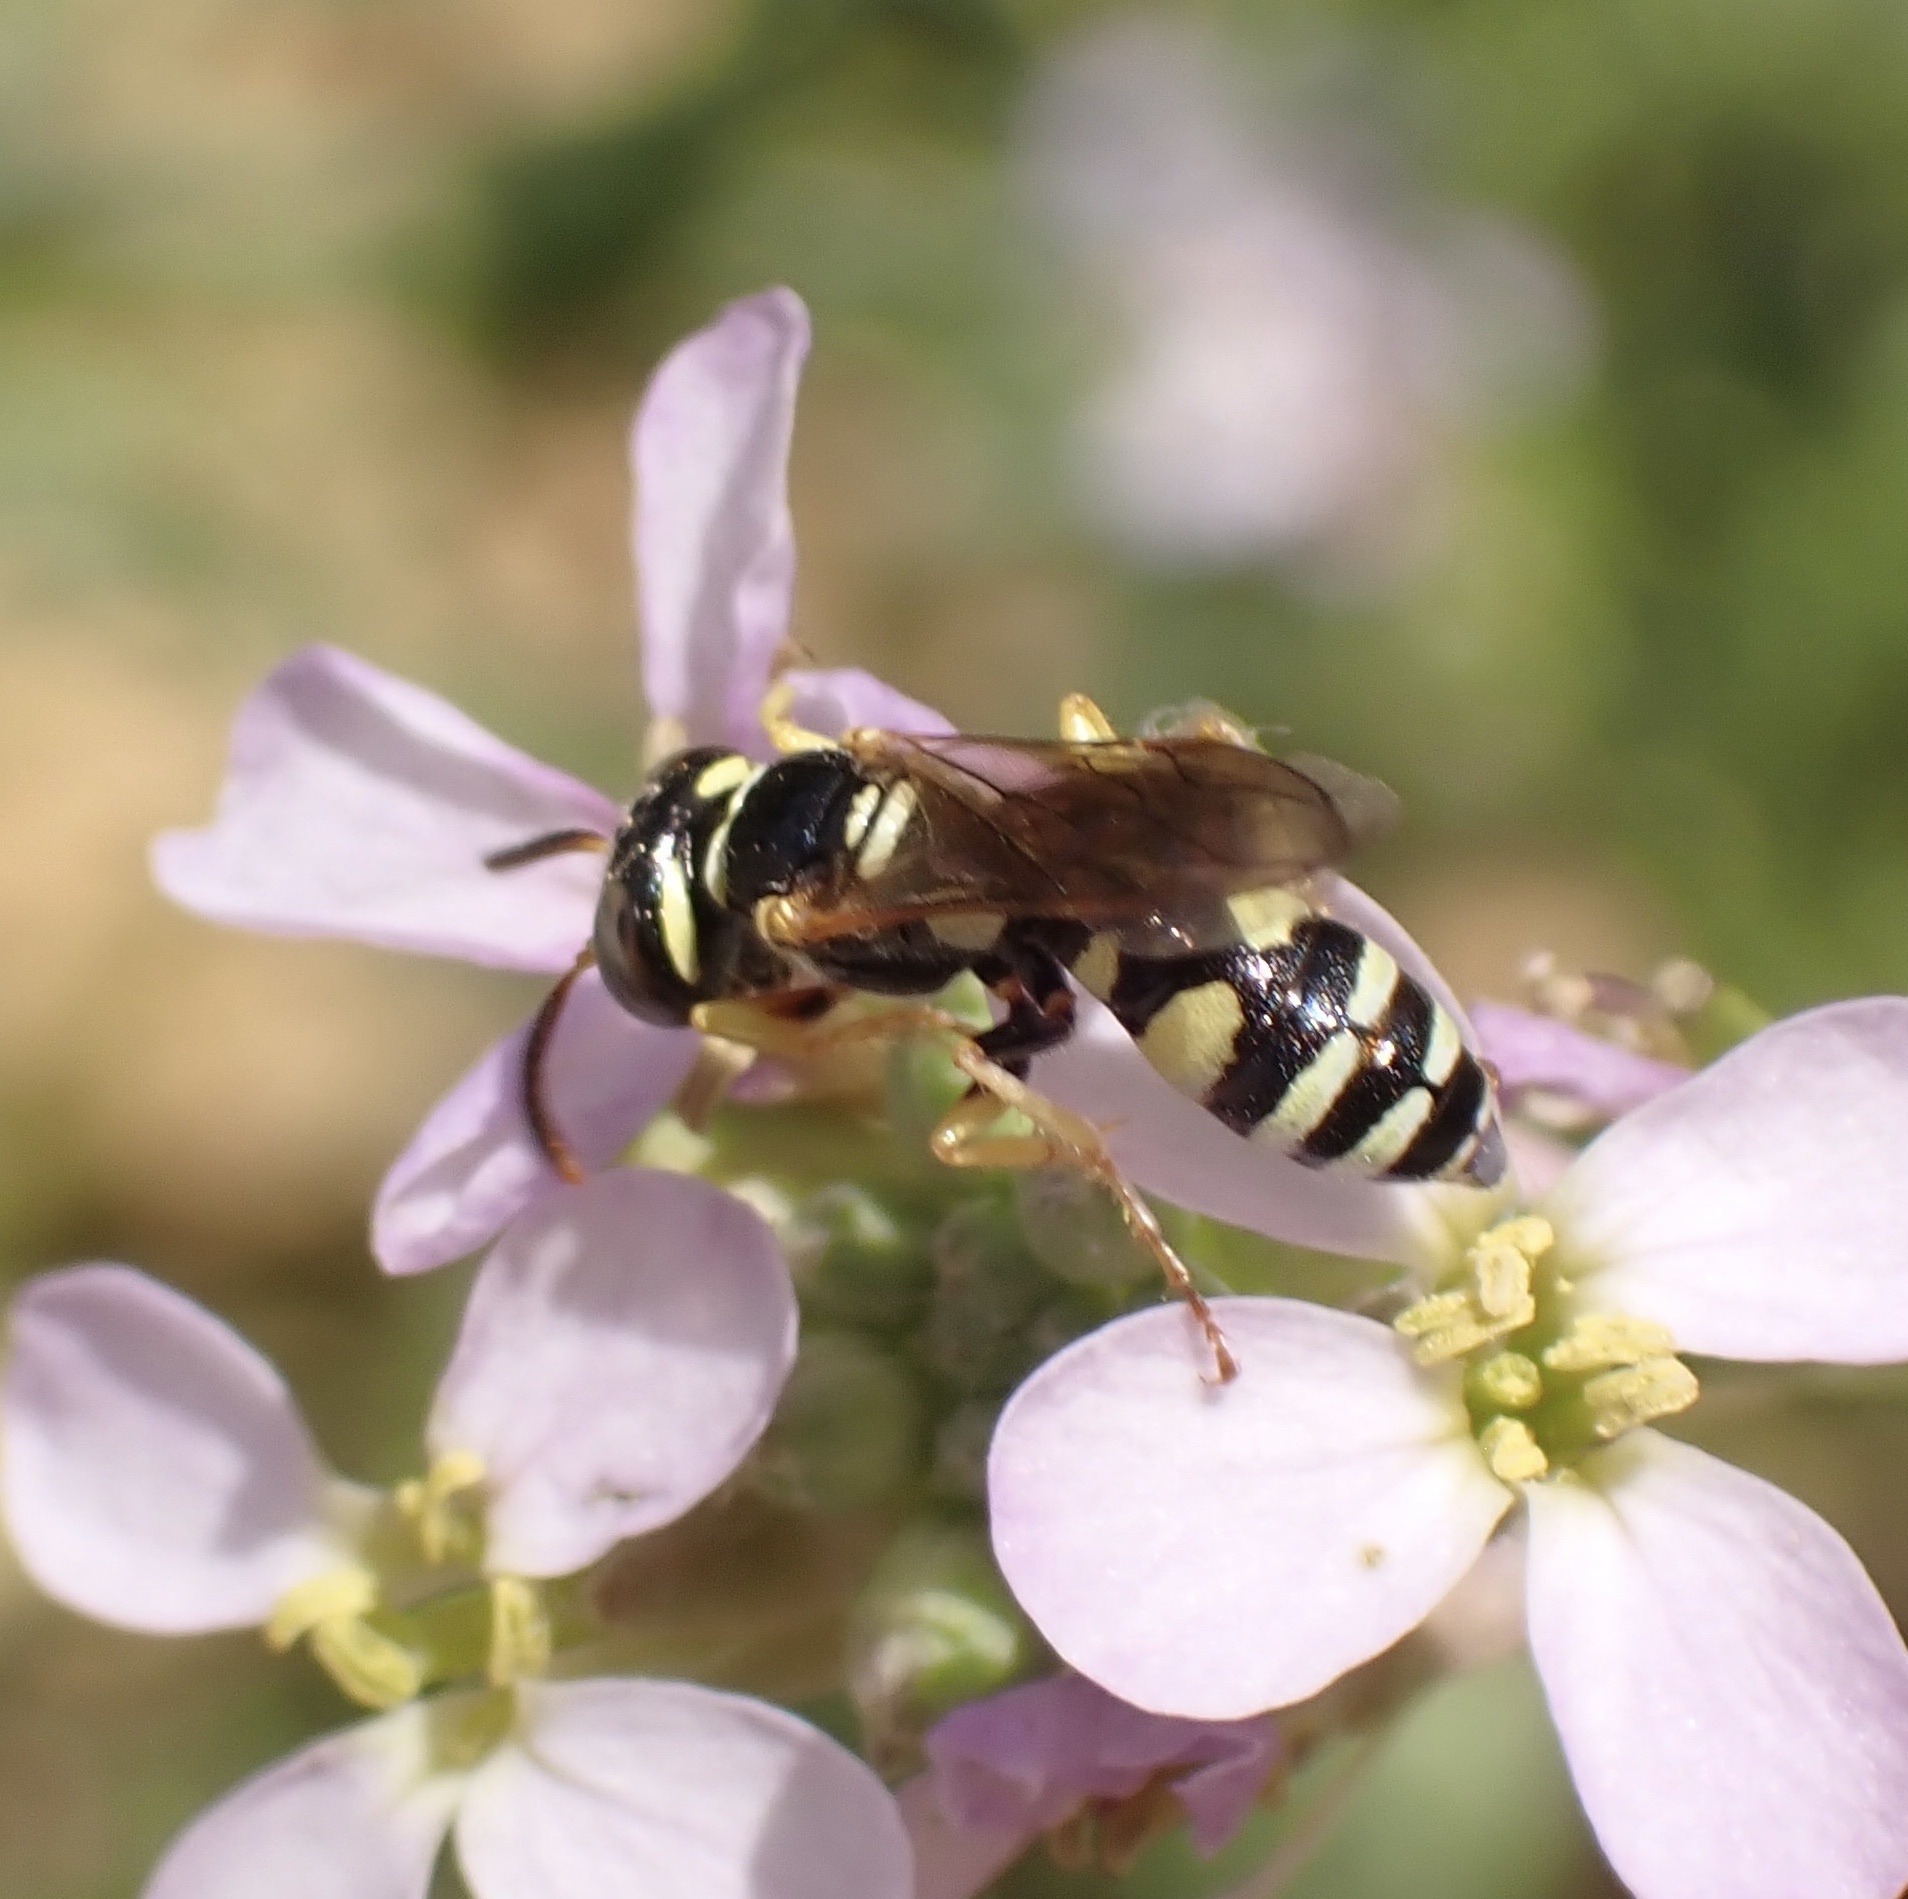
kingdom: Animalia
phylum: Arthropoda
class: Insecta
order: Hymenoptera
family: Crabronidae
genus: Philanthus
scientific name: Philanthus pulchellus
